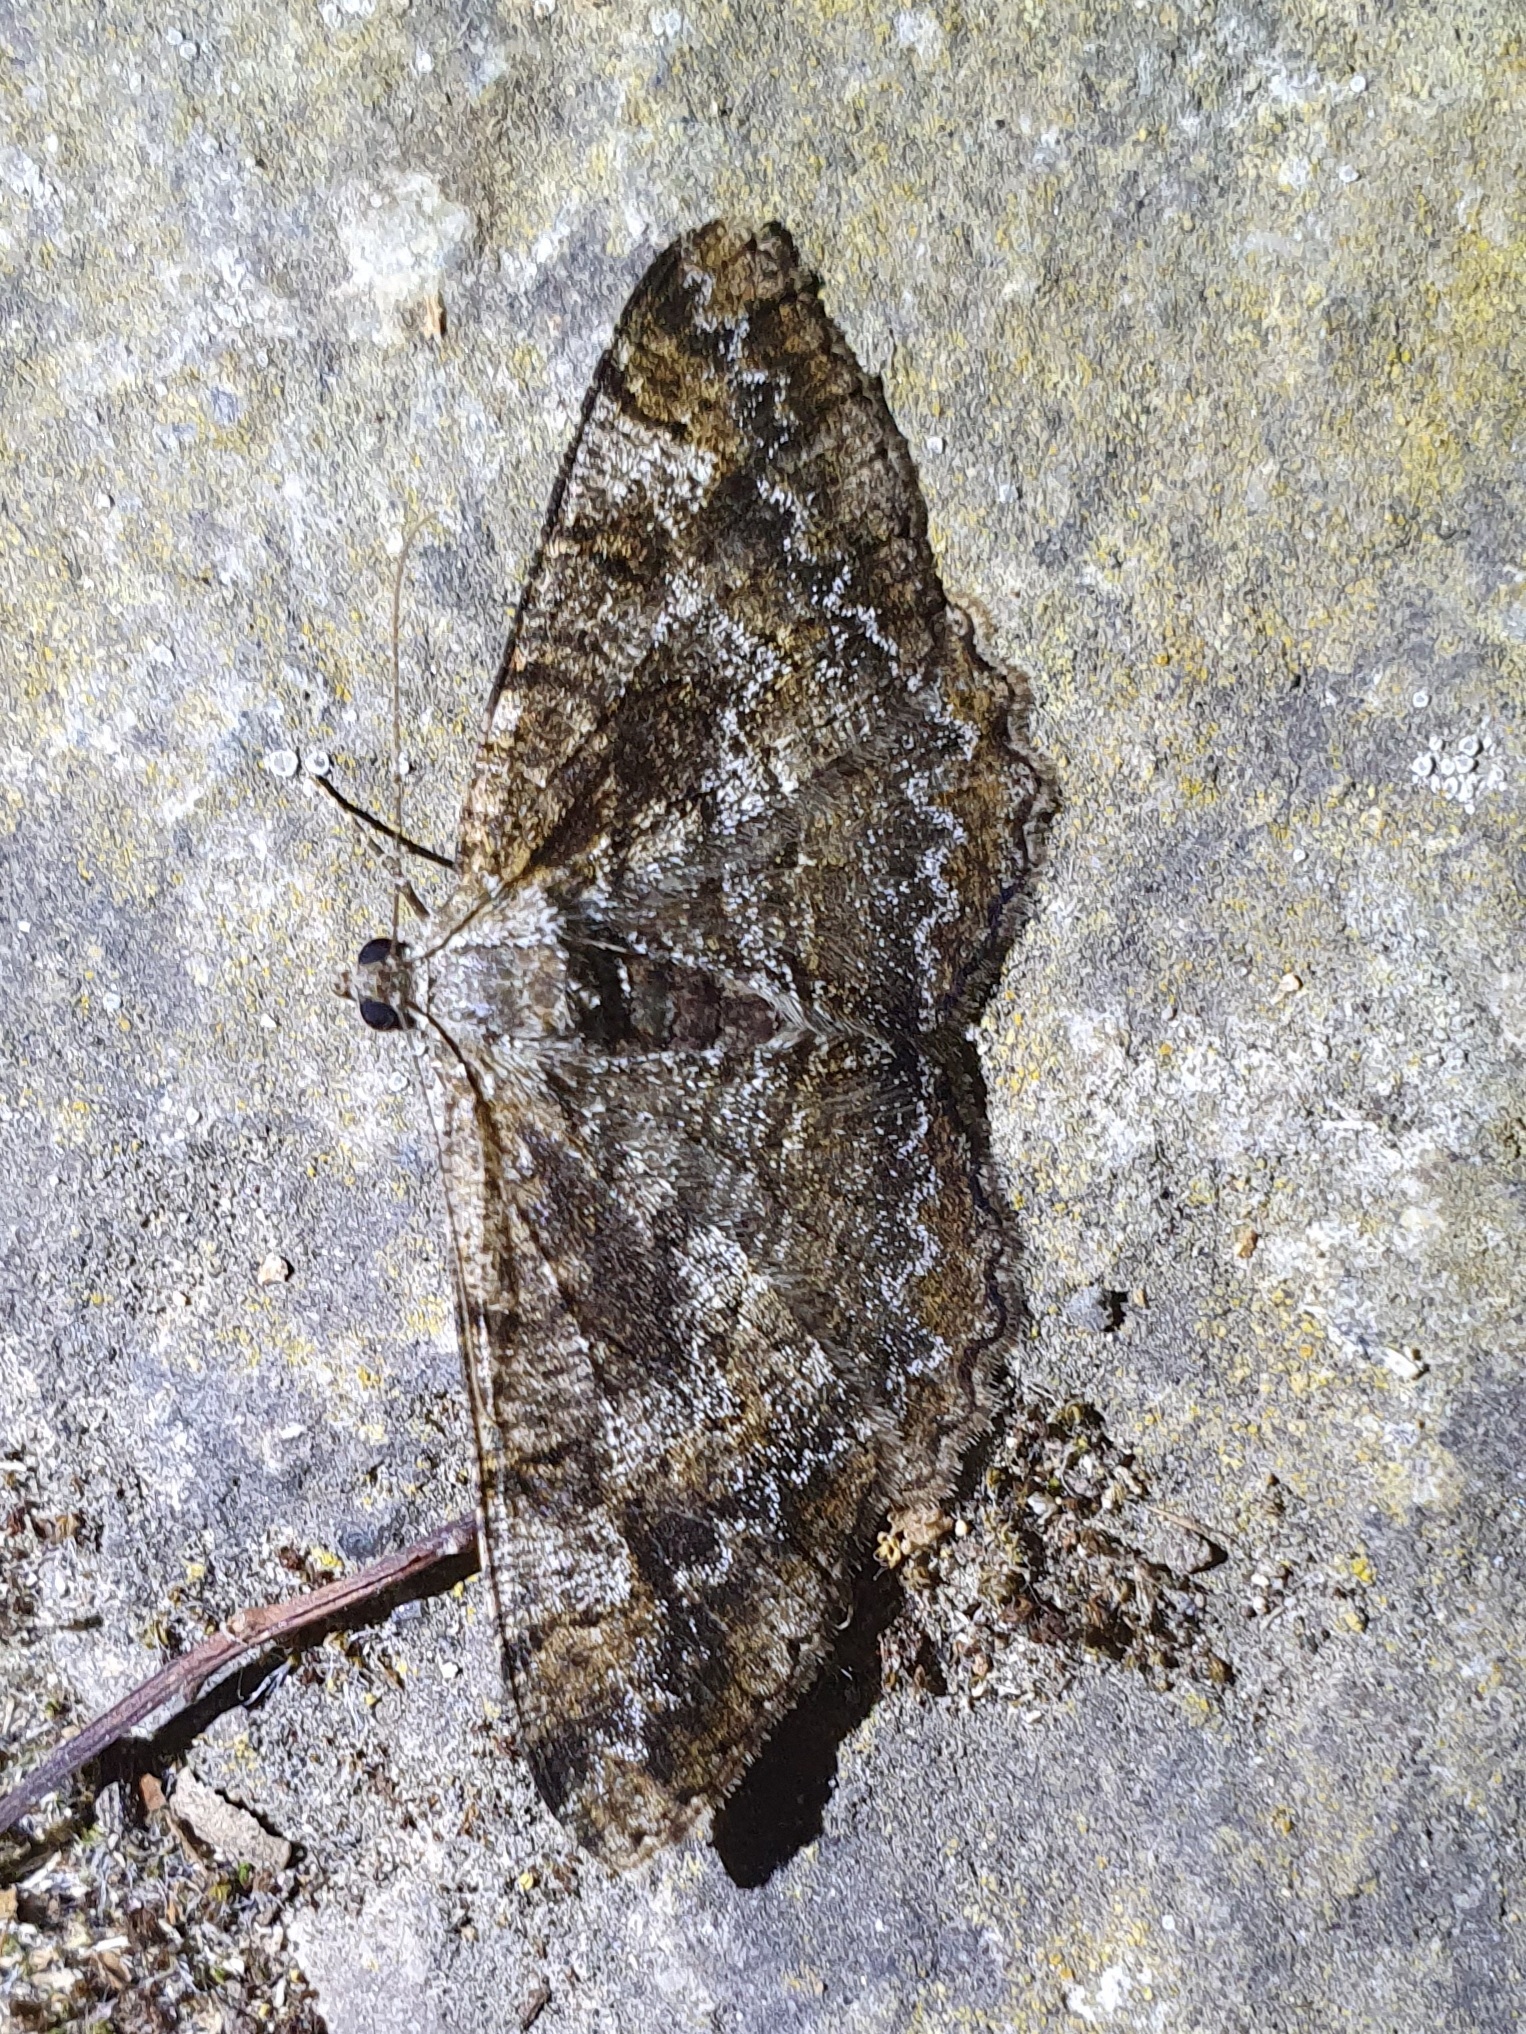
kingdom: Animalia
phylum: Arthropoda
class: Insecta
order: Lepidoptera
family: Geometridae
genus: Alcis
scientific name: Alcis repandata
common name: Mottled beauty
